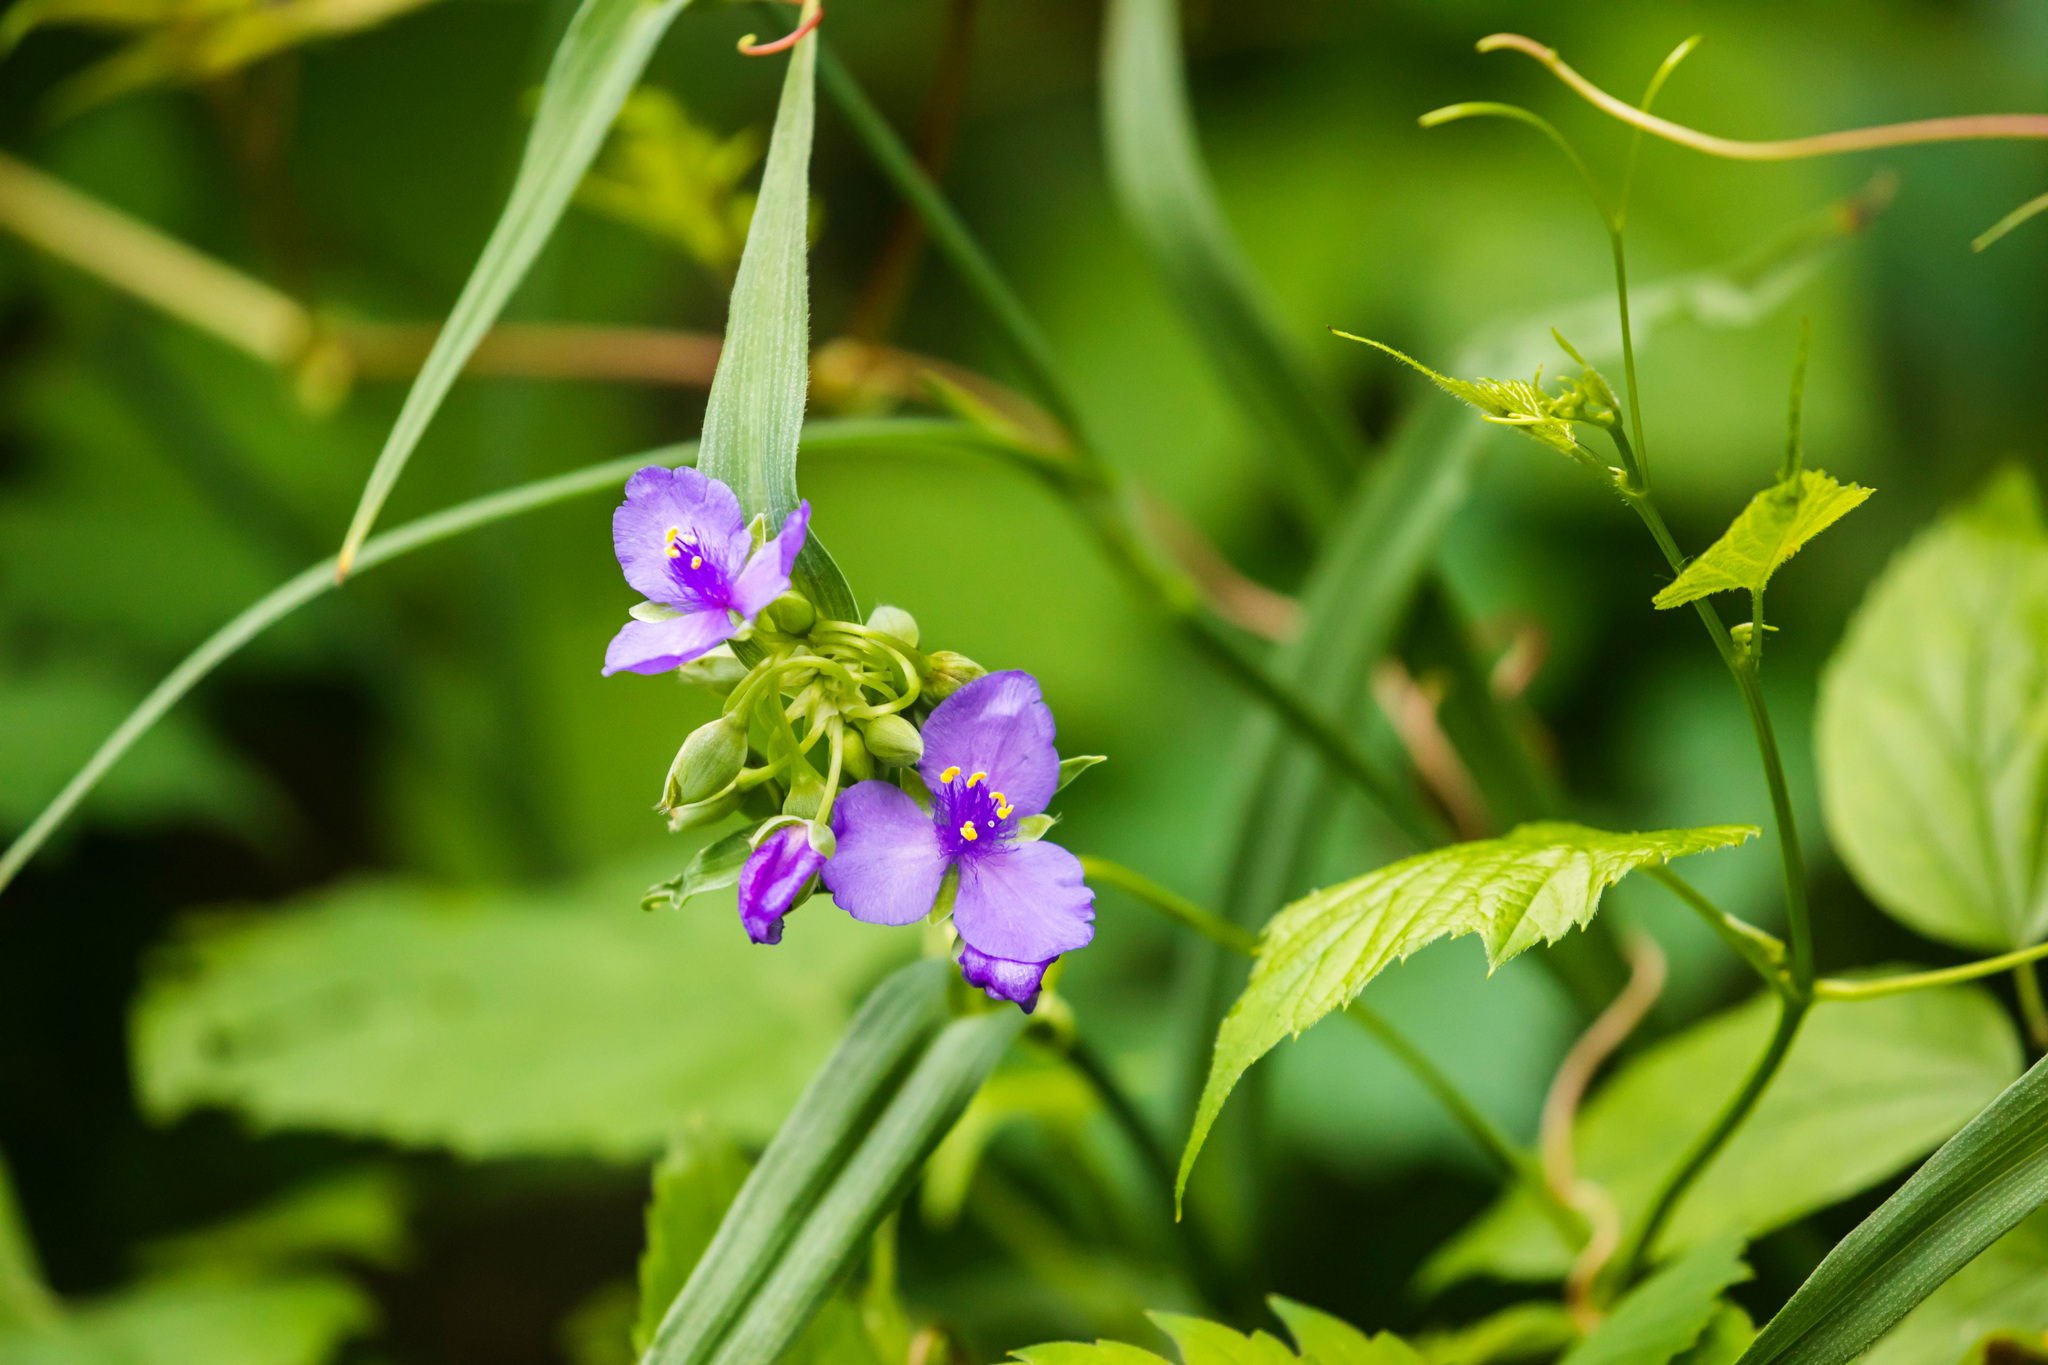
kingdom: Plantae
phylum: Tracheophyta
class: Liliopsida
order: Commelinales
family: Commelinaceae
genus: Tradescantia
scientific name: Tradescantia virginiana
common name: Spiderwort
